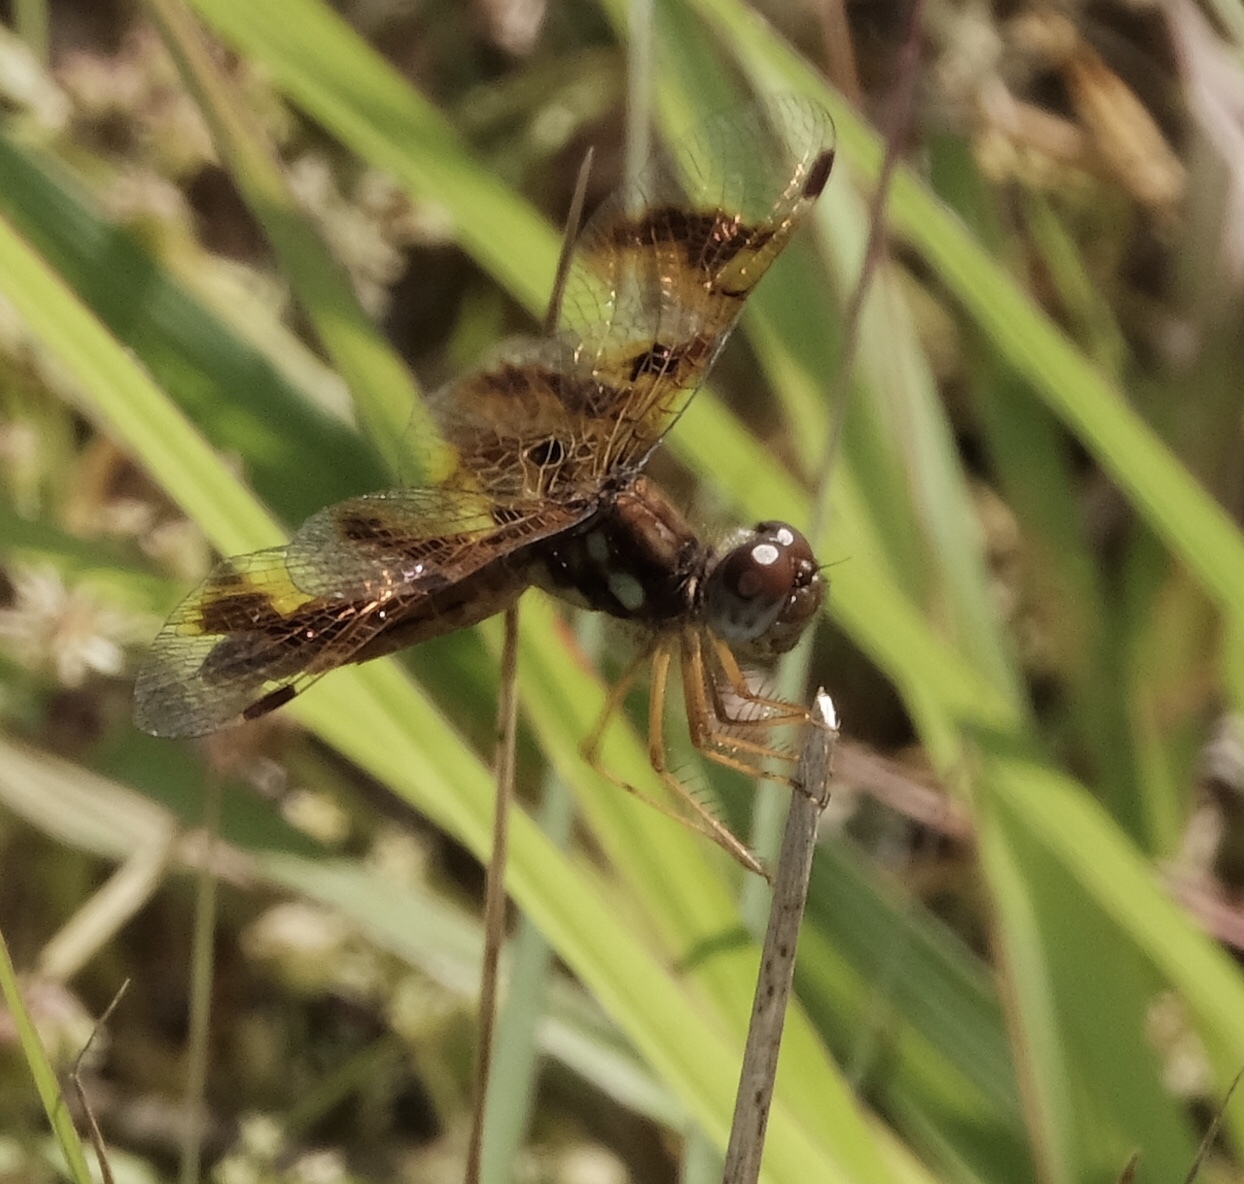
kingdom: Animalia
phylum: Arthropoda
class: Insecta
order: Odonata
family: Libellulidae
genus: Perithemis
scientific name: Perithemis tenera
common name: Eastern amberwing
